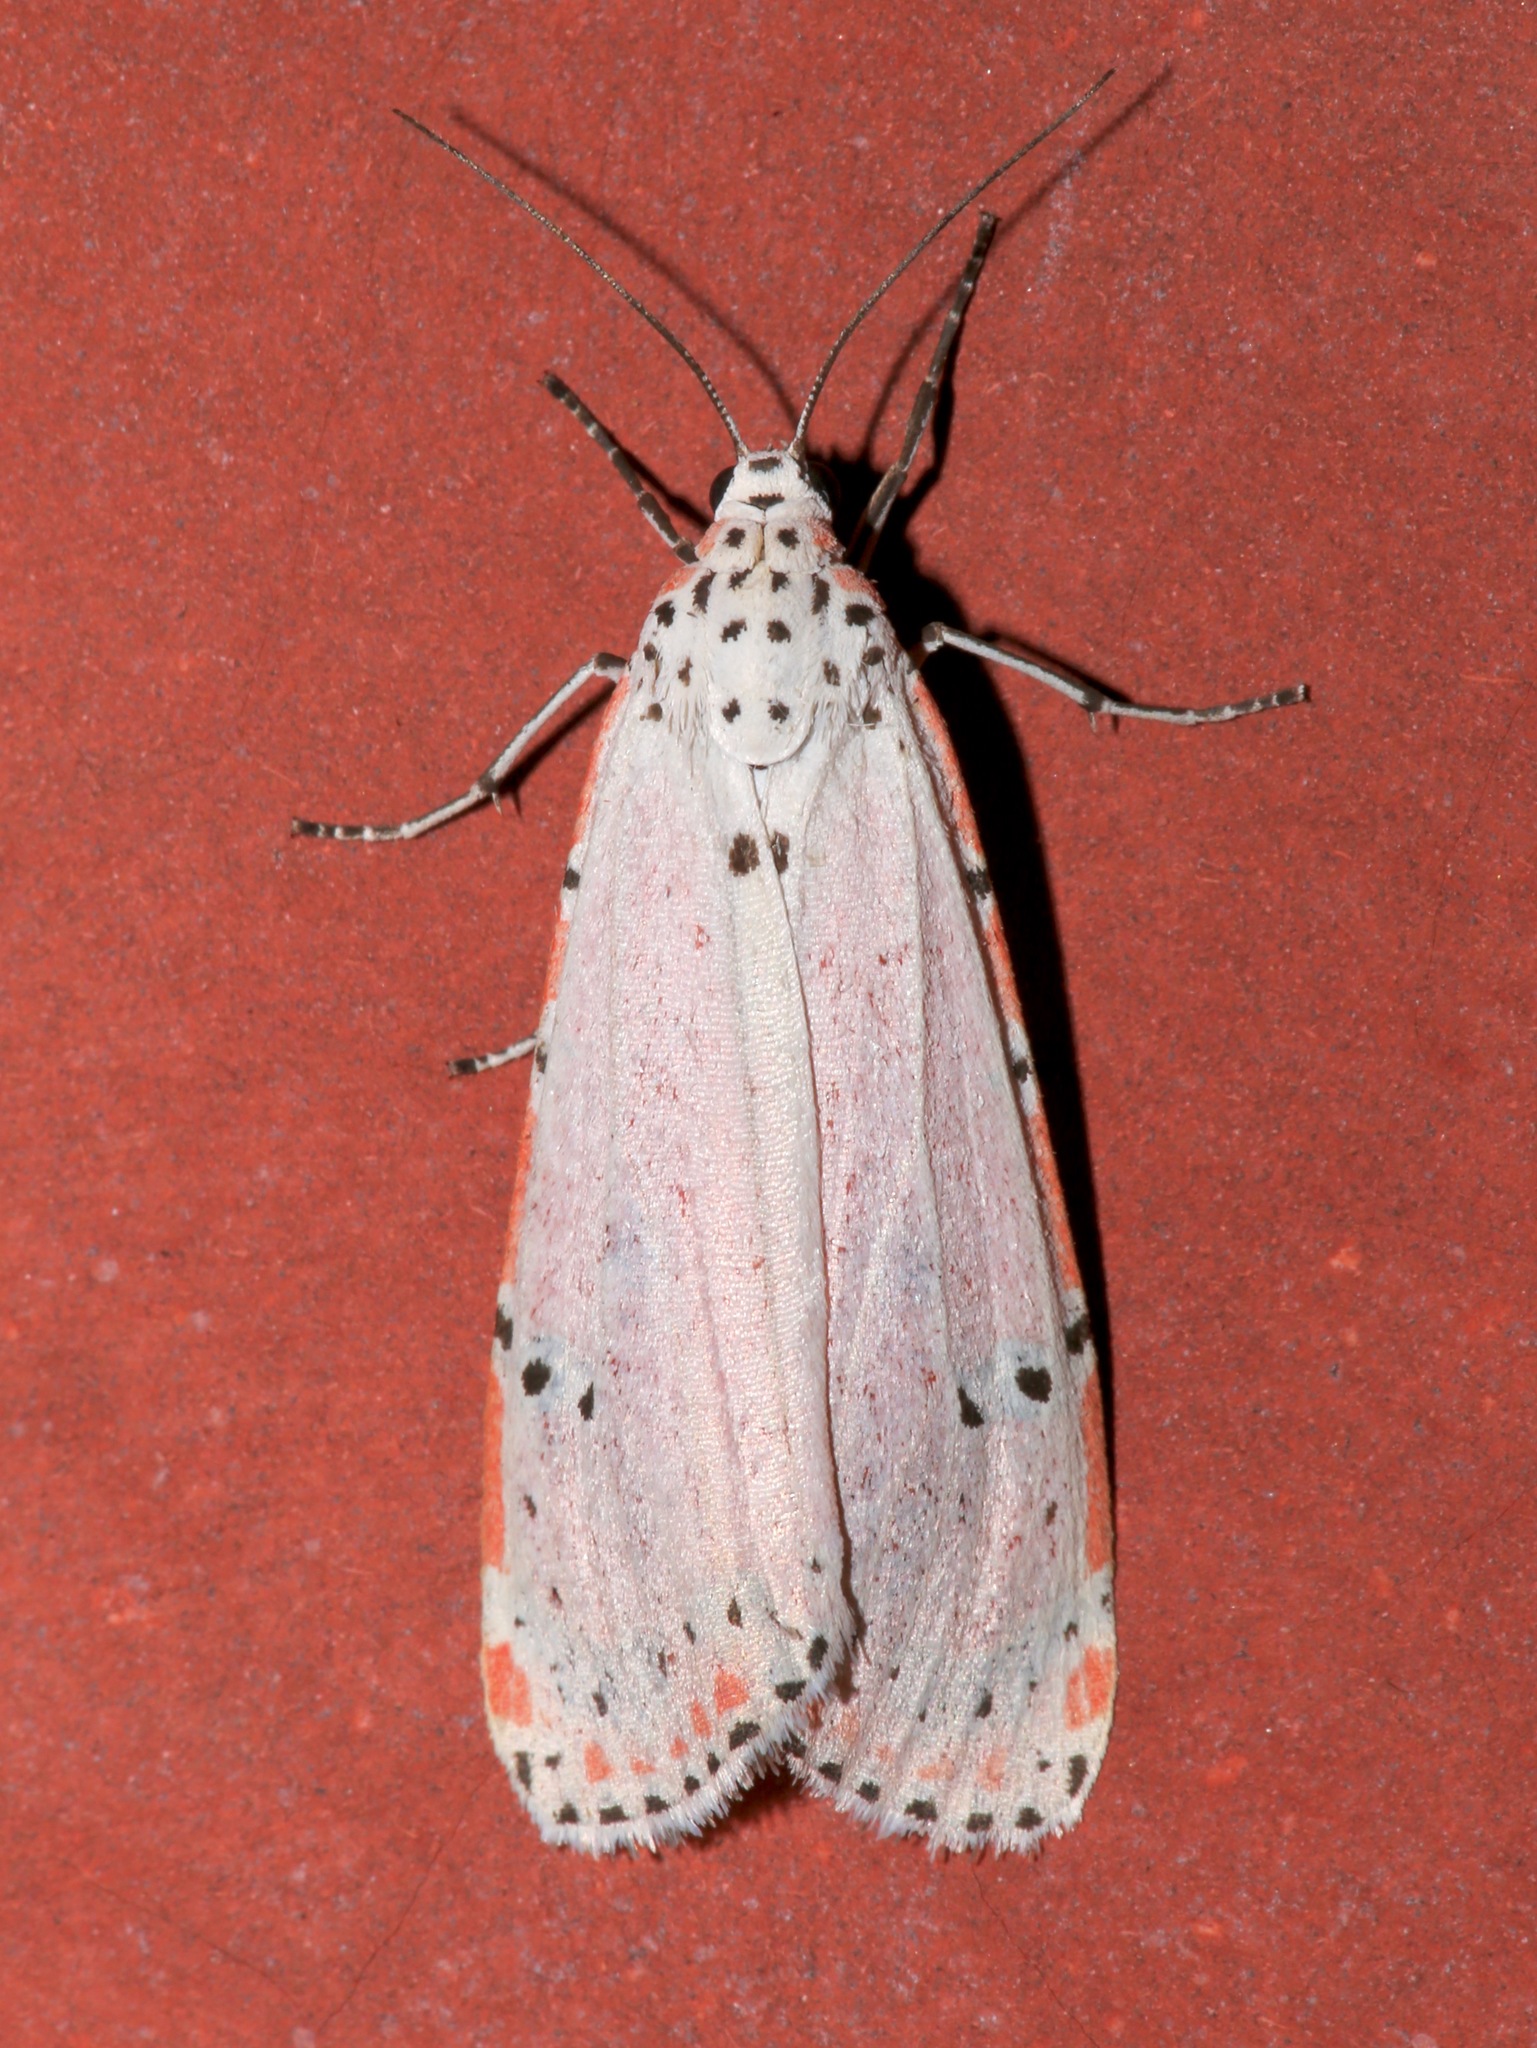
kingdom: Animalia
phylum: Arthropoda
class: Insecta
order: Lepidoptera
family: Erebidae
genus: Utetheisa
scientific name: Utetheisa ornatrix
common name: Beautiful utetheisa
